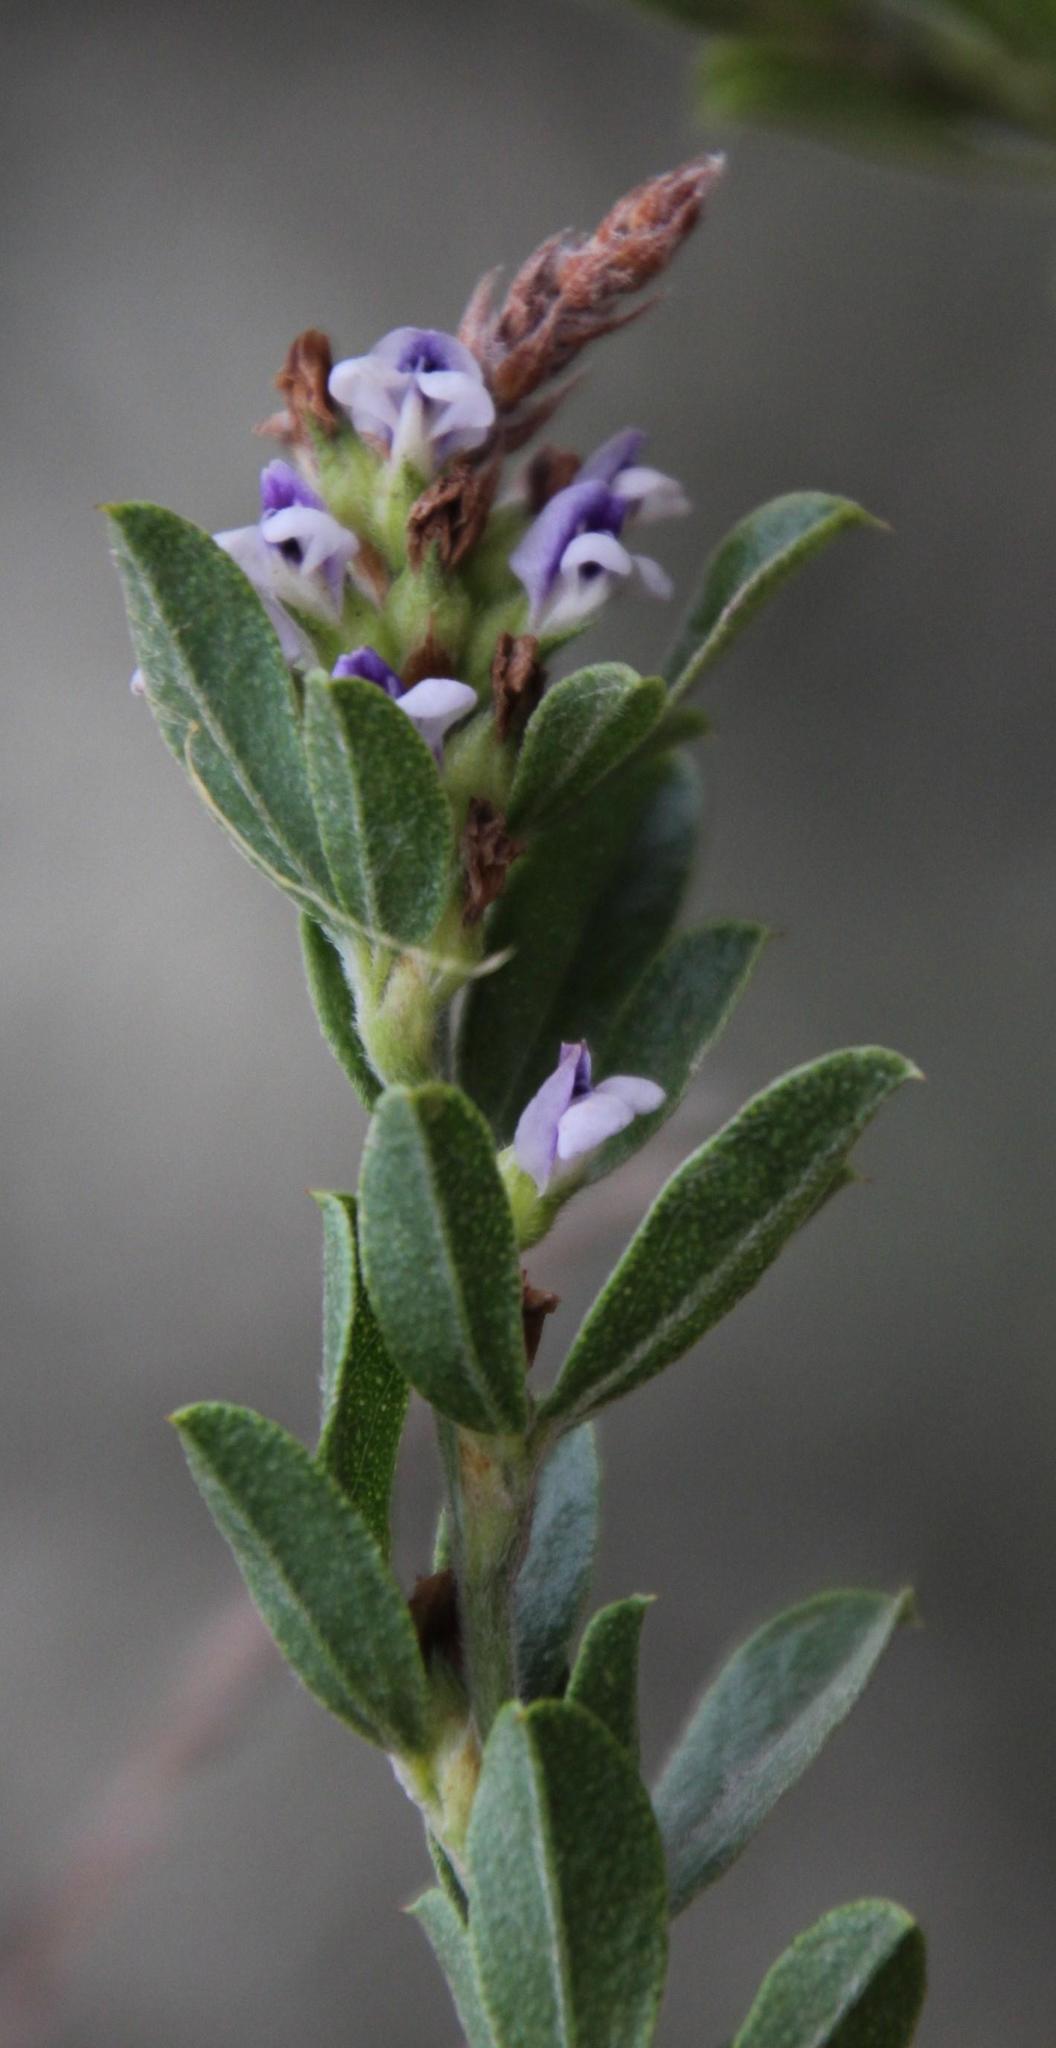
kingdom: Plantae
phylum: Tracheophyta
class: Magnoliopsida
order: Fabales
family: Fabaceae
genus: Psoralea
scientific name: Psoralea spicata
